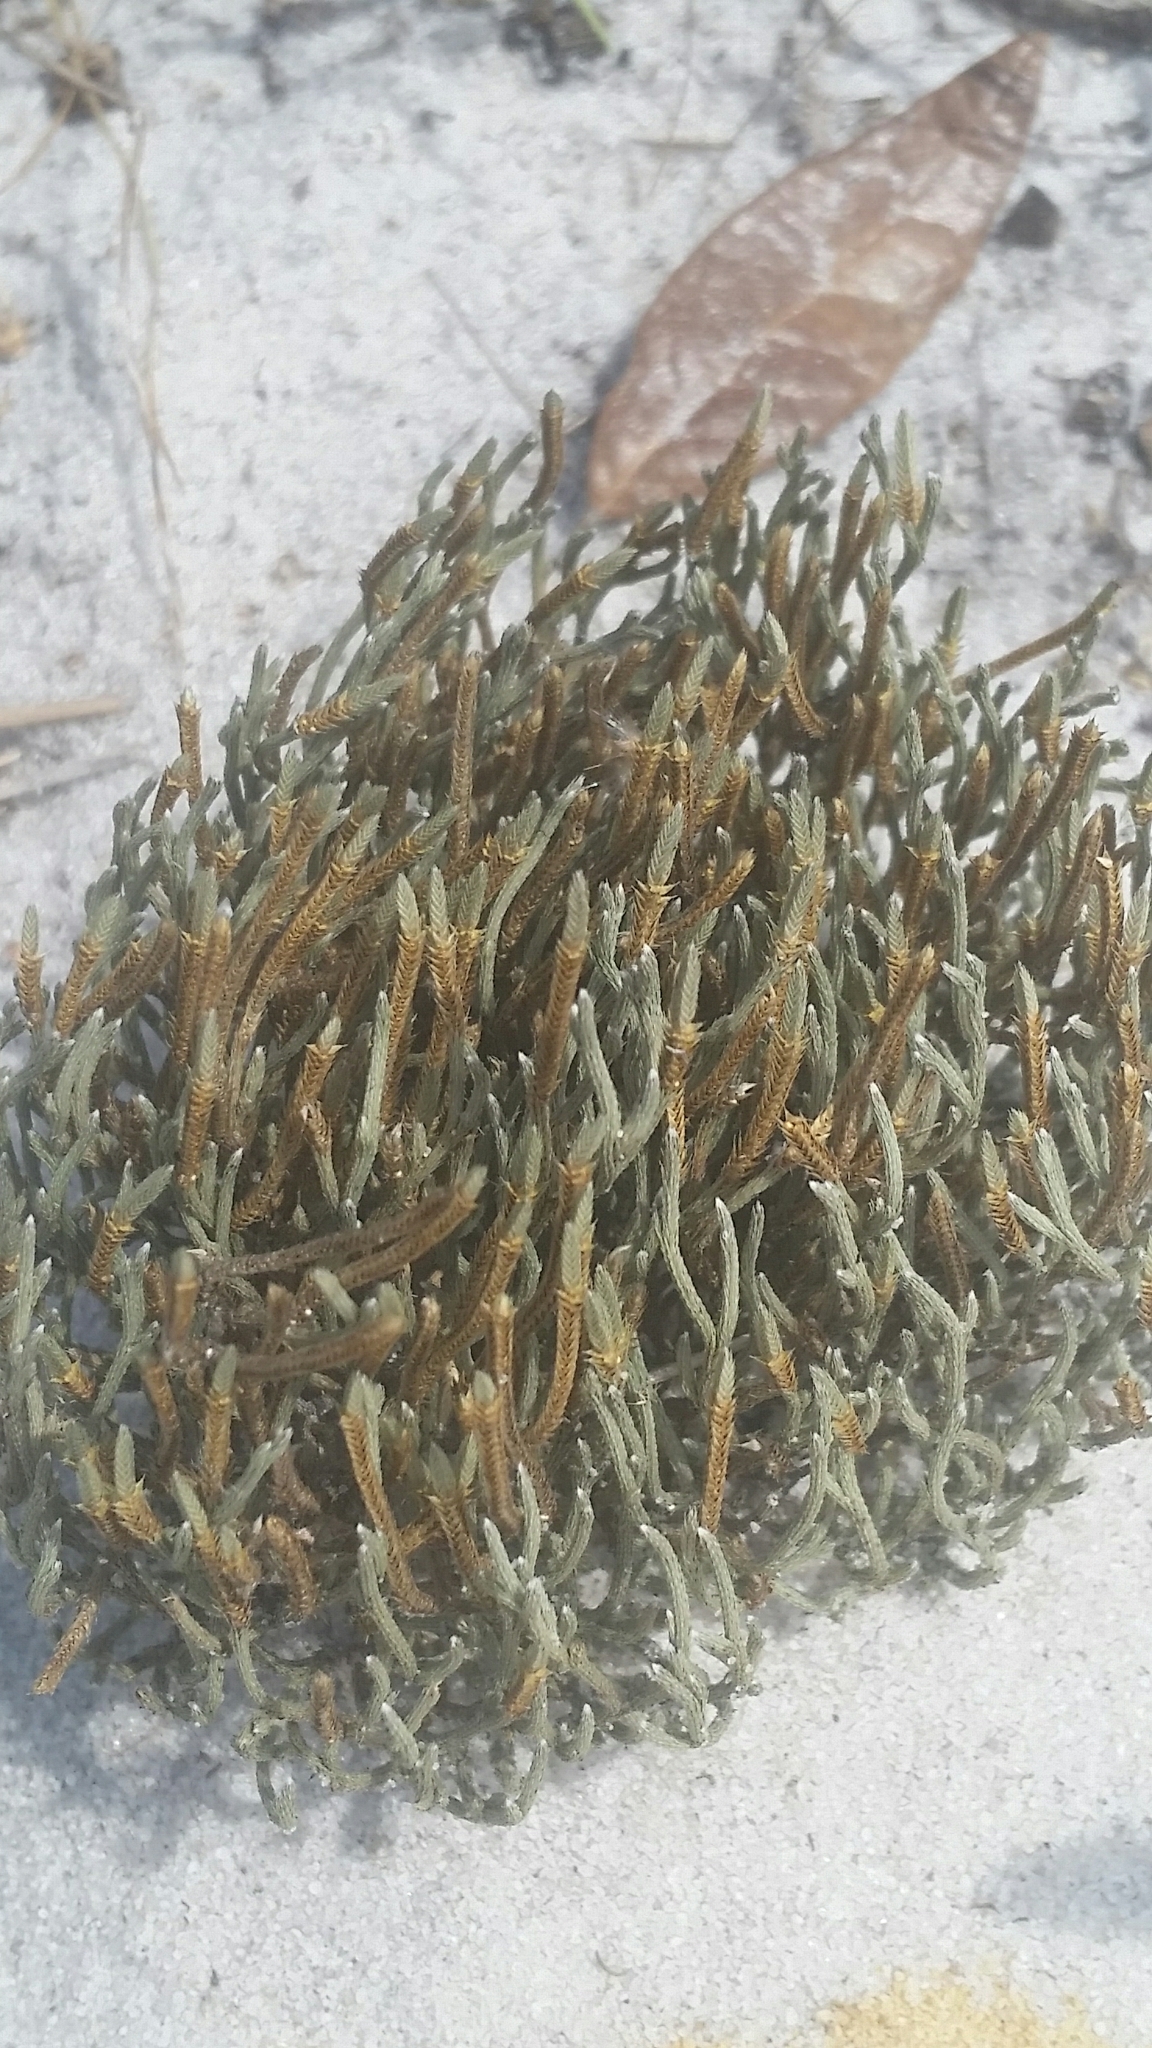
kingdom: Plantae
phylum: Tracheophyta
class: Lycopodiopsida
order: Selaginellales
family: Selaginellaceae
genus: Selaginella
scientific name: Selaginella arenicola
